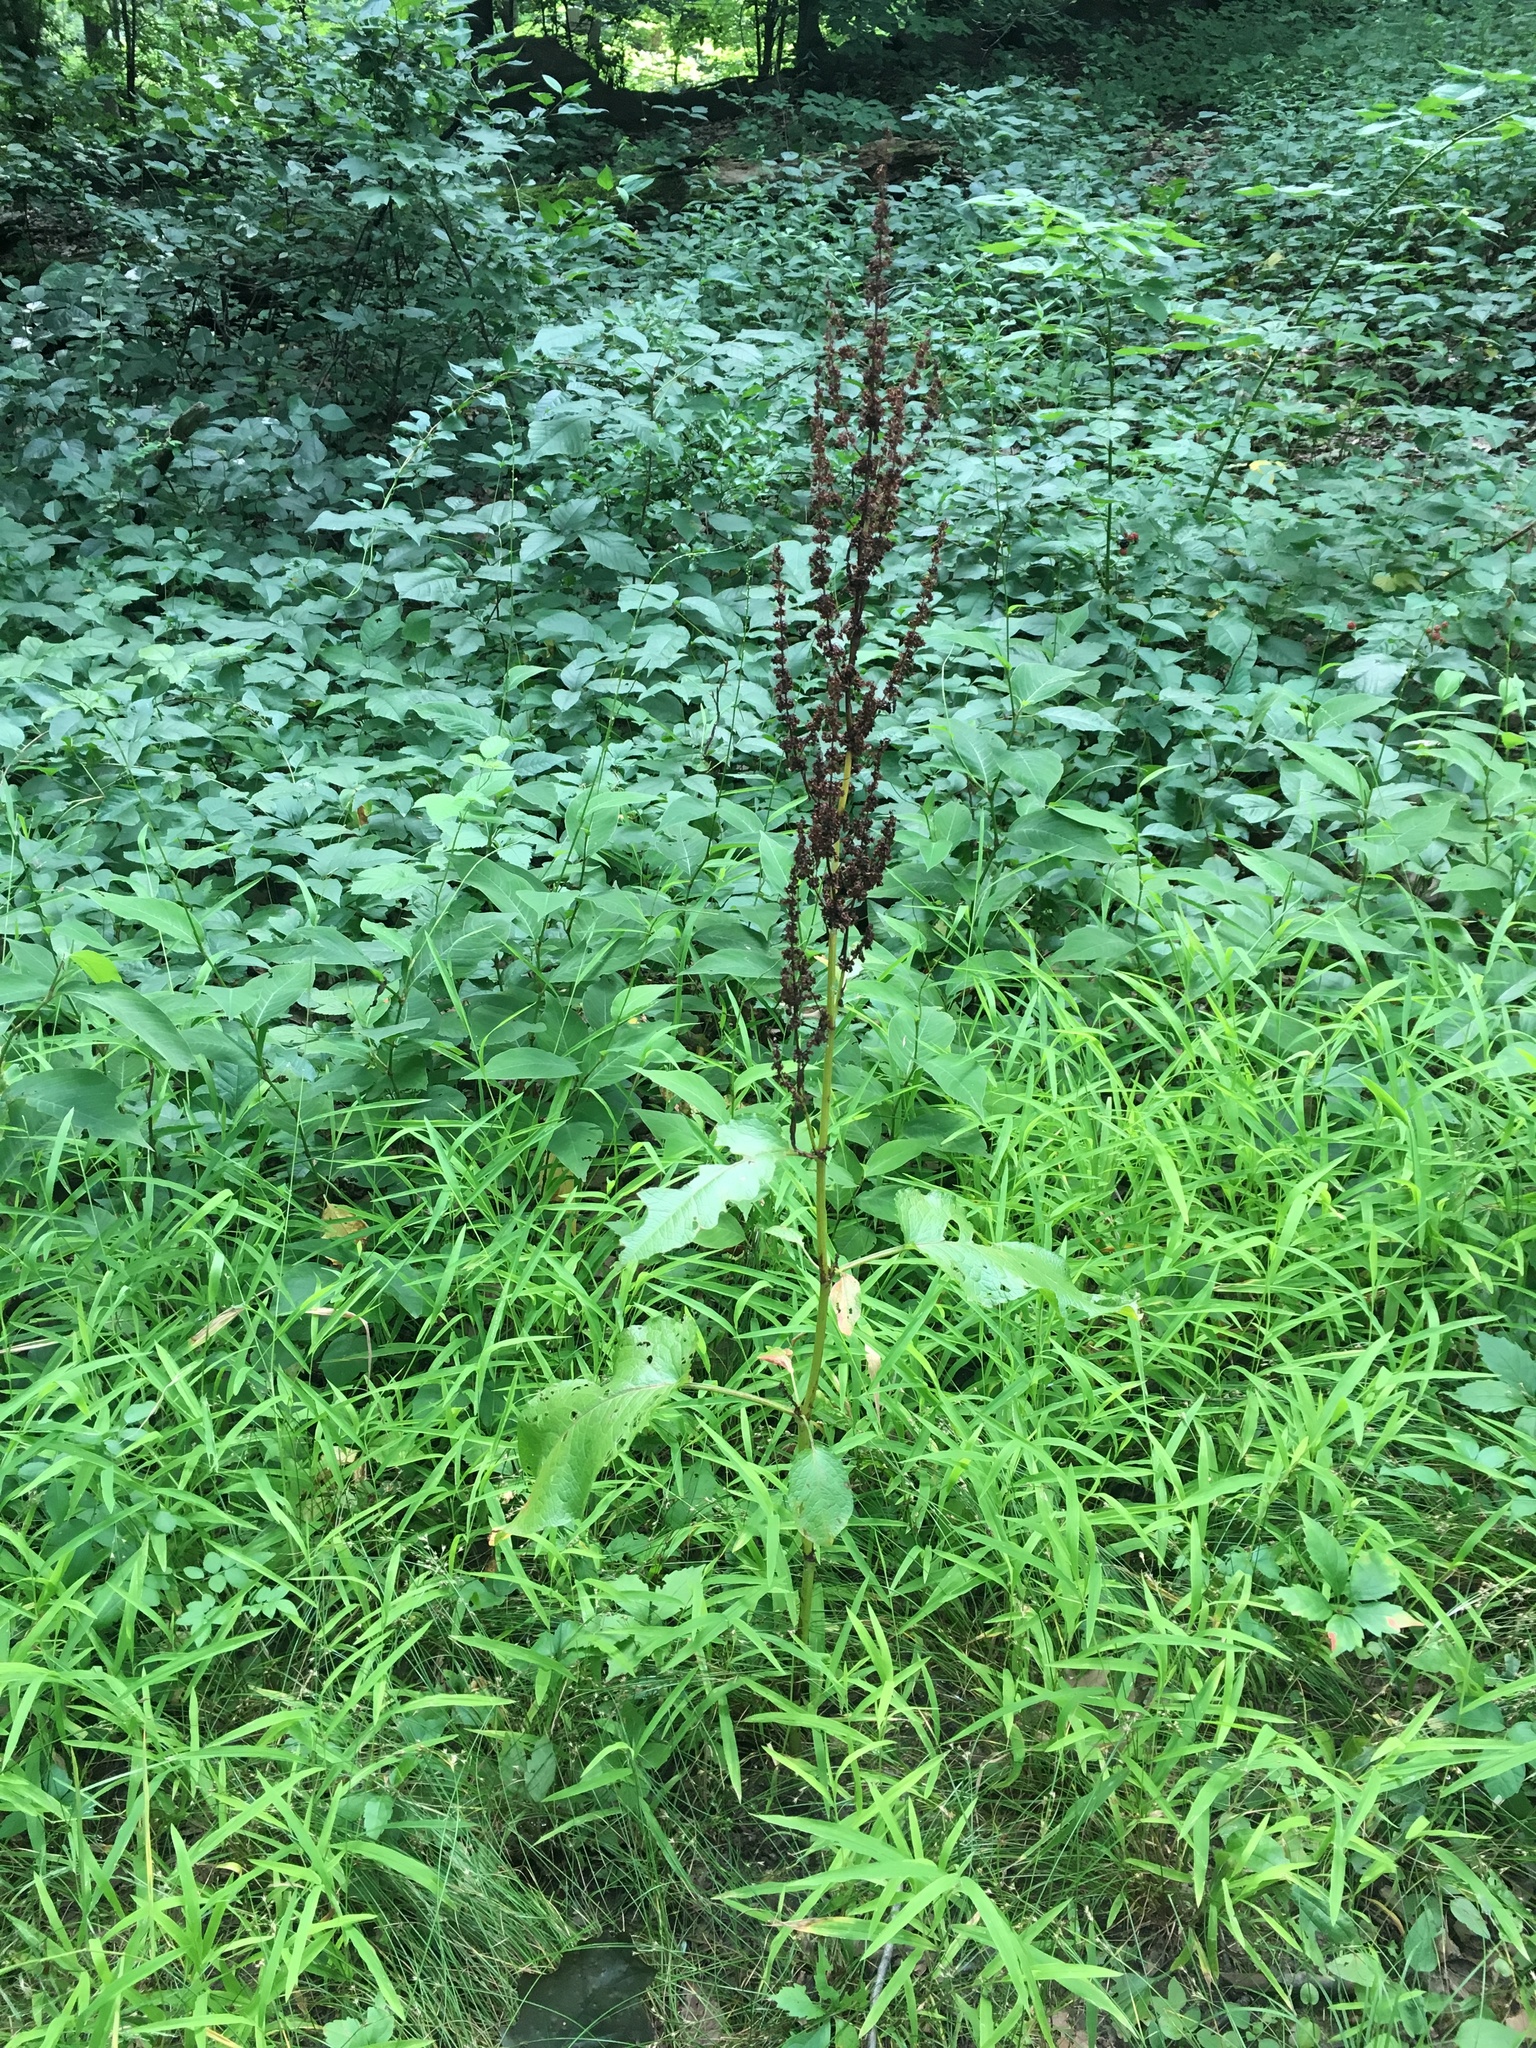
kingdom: Plantae
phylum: Tracheophyta
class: Magnoliopsida
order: Caryophyllales
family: Polygonaceae
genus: Rumex
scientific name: Rumex obtusifolius
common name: Bitter dock
